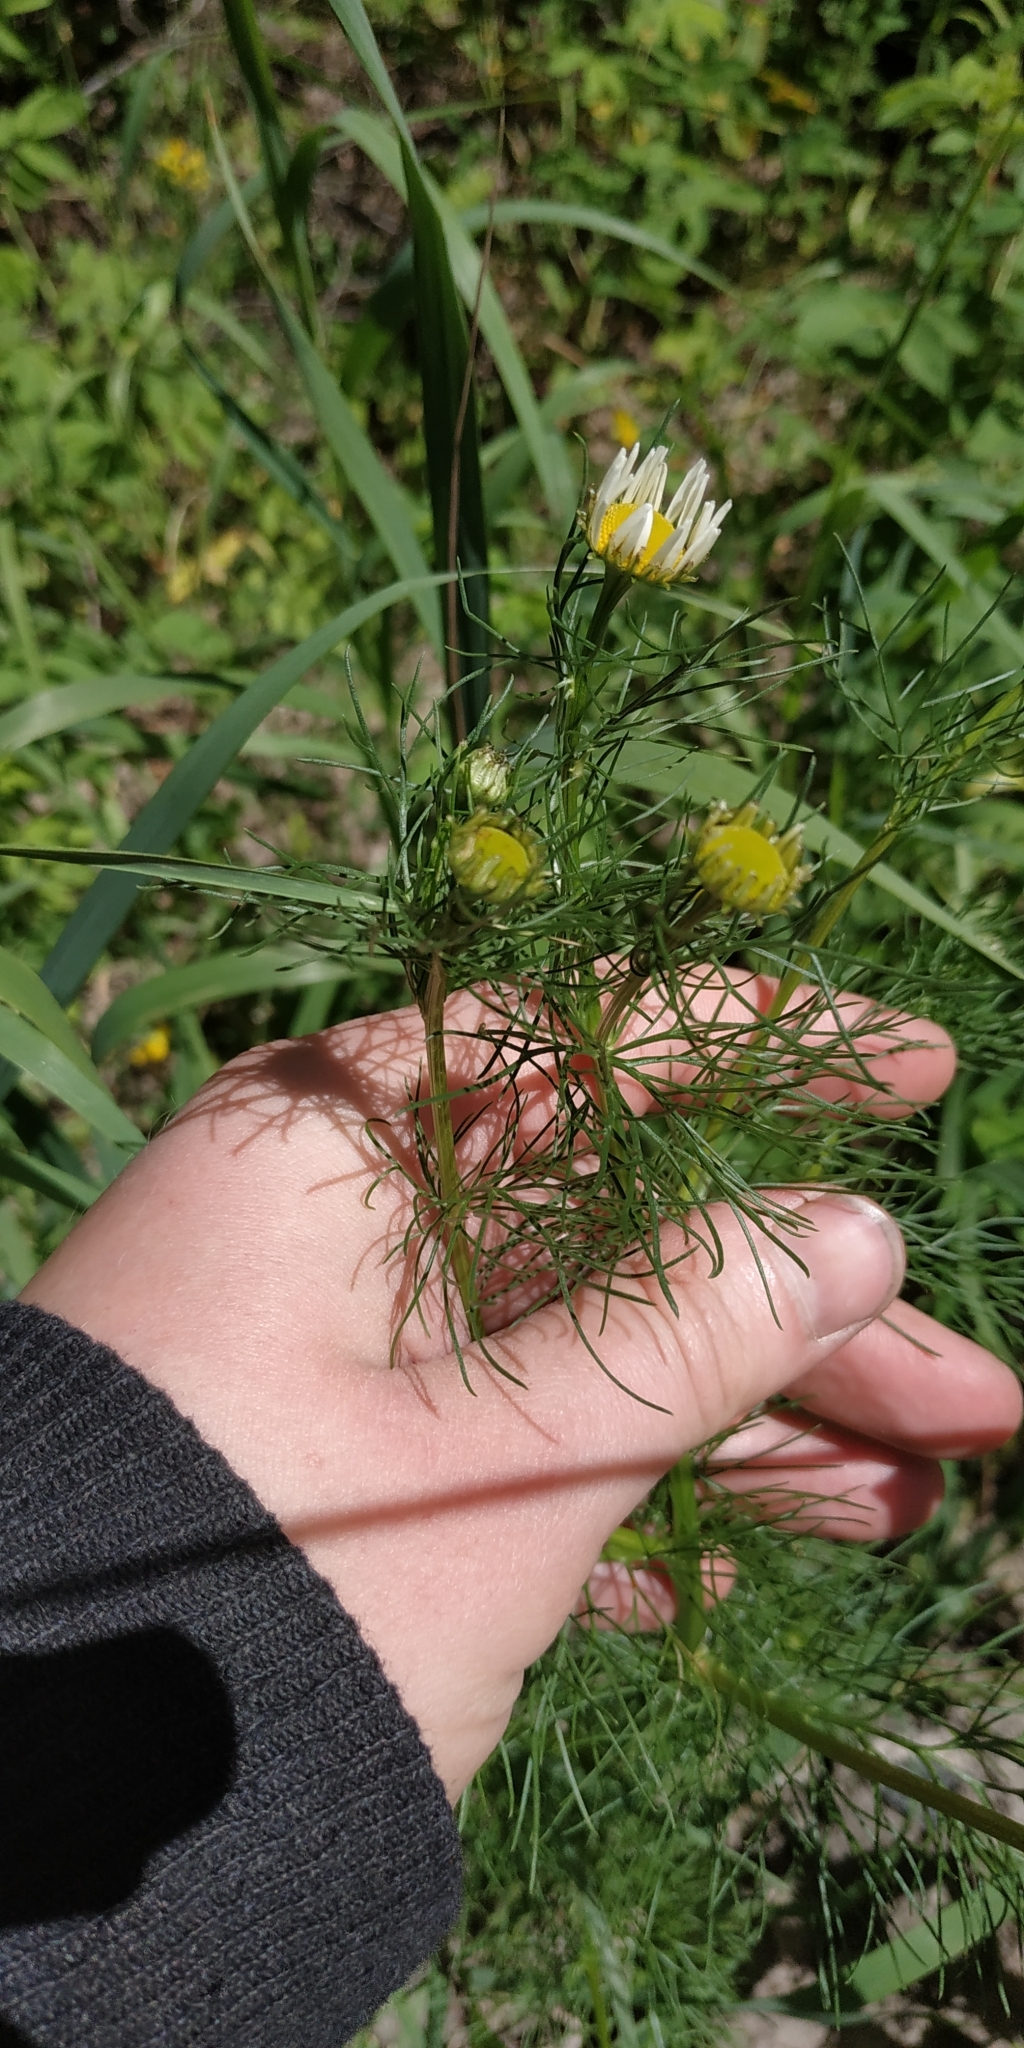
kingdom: Plantae
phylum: Tracheophyta
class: Magnoliopsida
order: Asterales
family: Asteraceae
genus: Tripleurospermum
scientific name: Tripleurospermum inodorum
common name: Scentless mayweed
